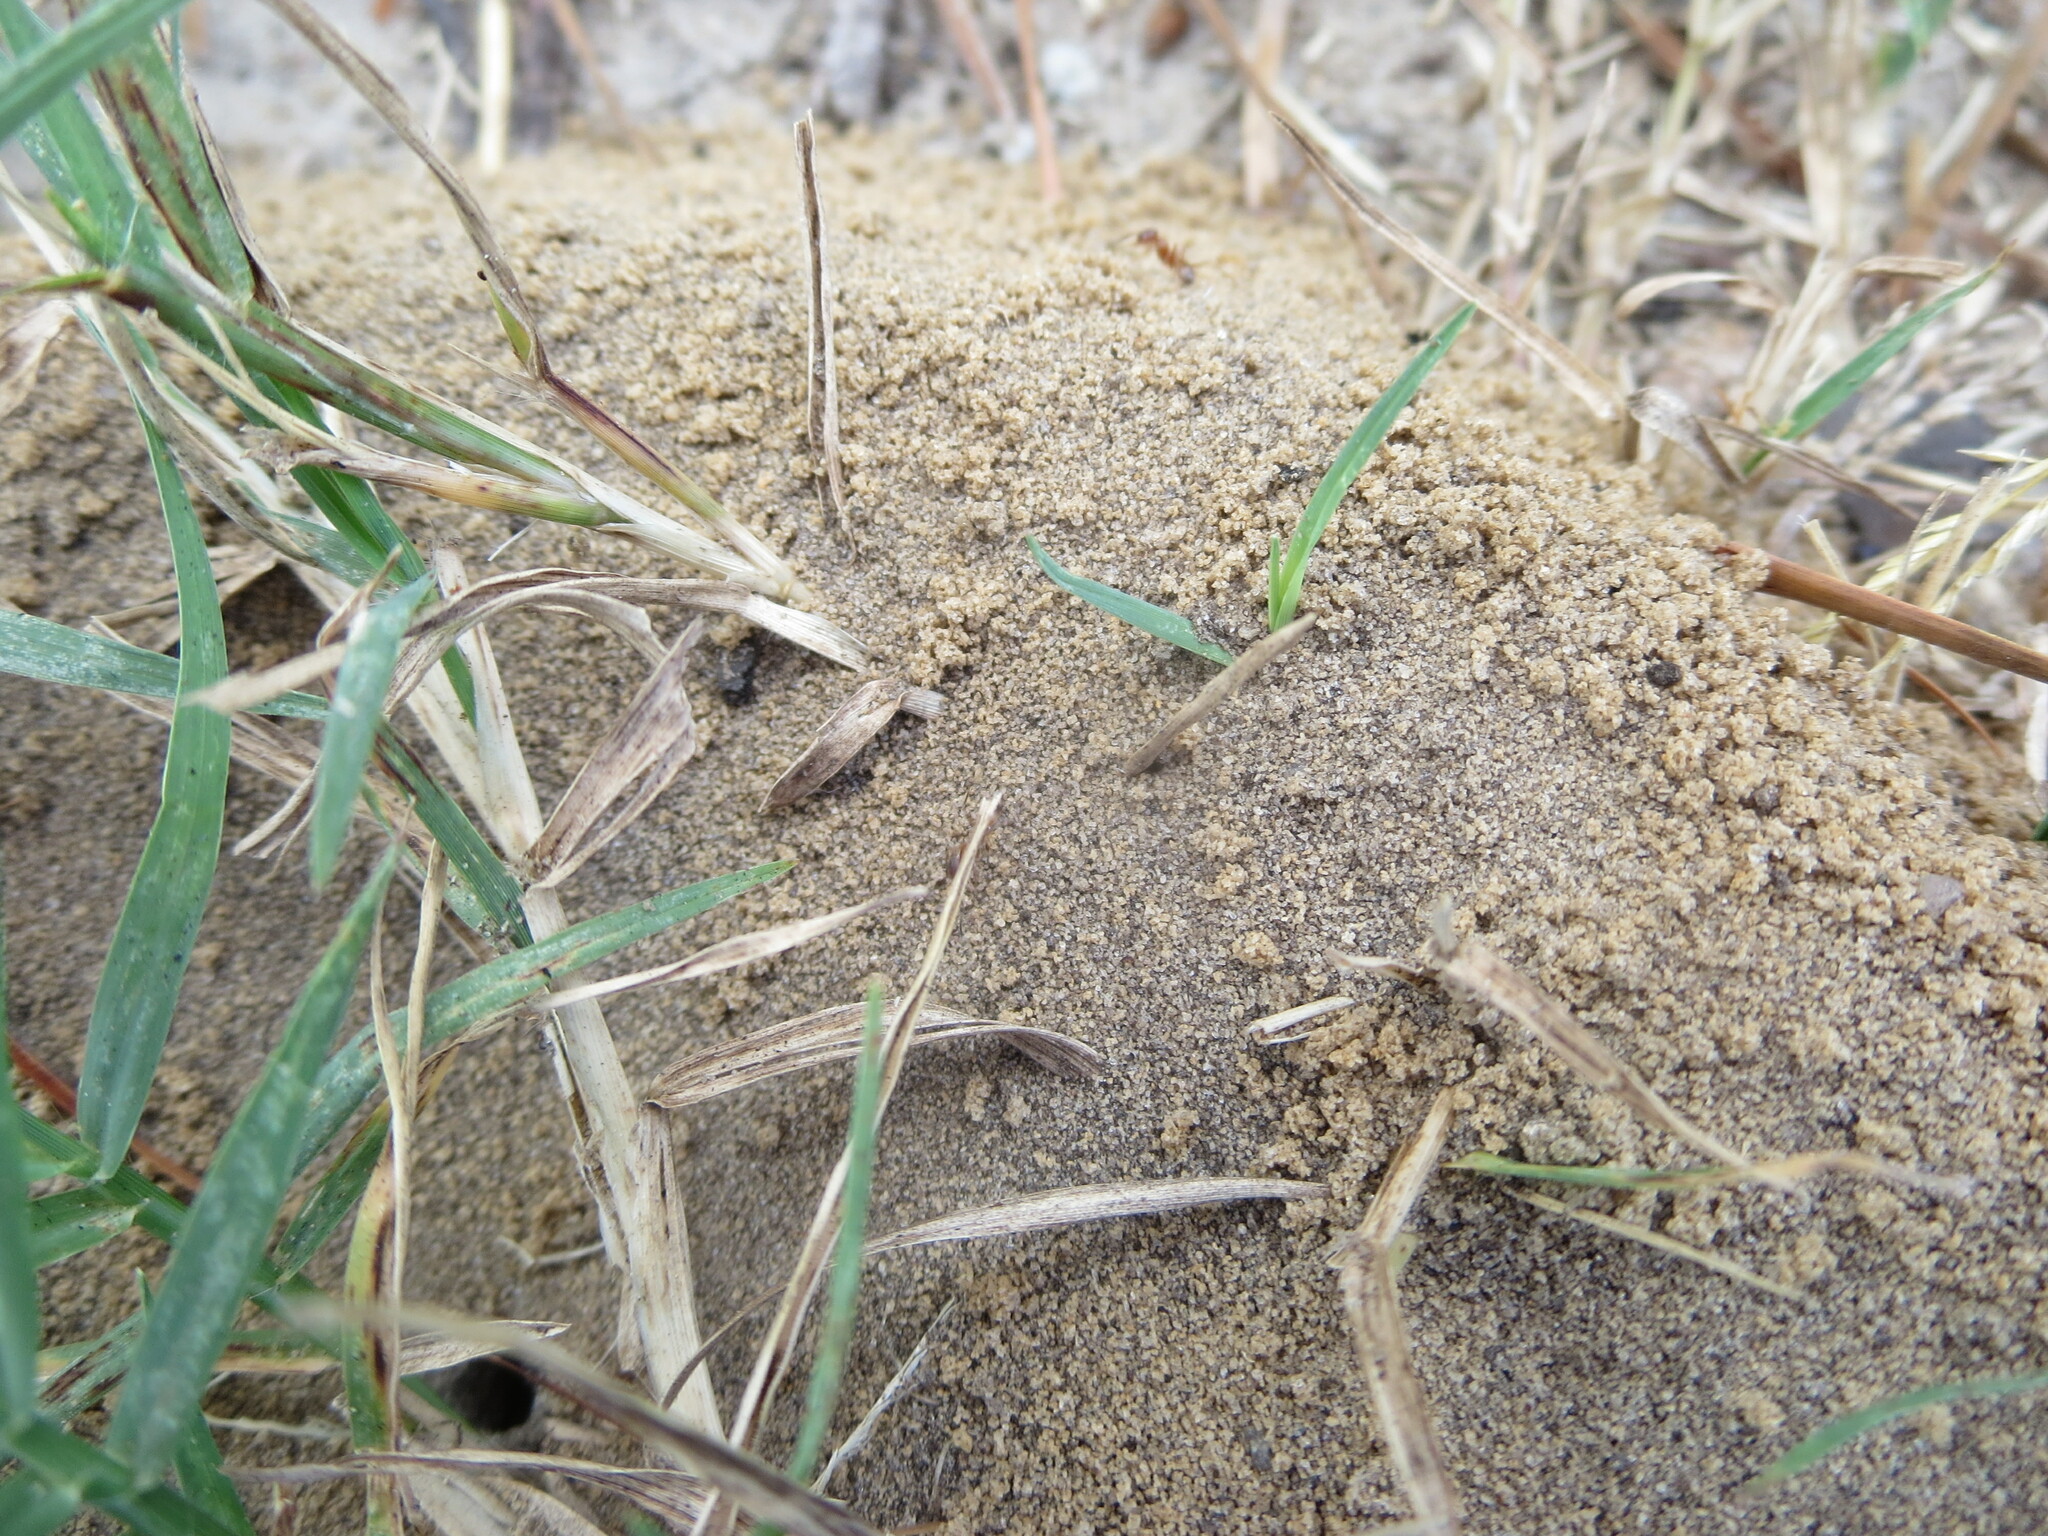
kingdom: Animalia
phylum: Arthropoda
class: Insecta
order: Hymenoptera
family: Formicidae
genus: Dorymyrmex
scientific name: Dorymyrmex bureni
